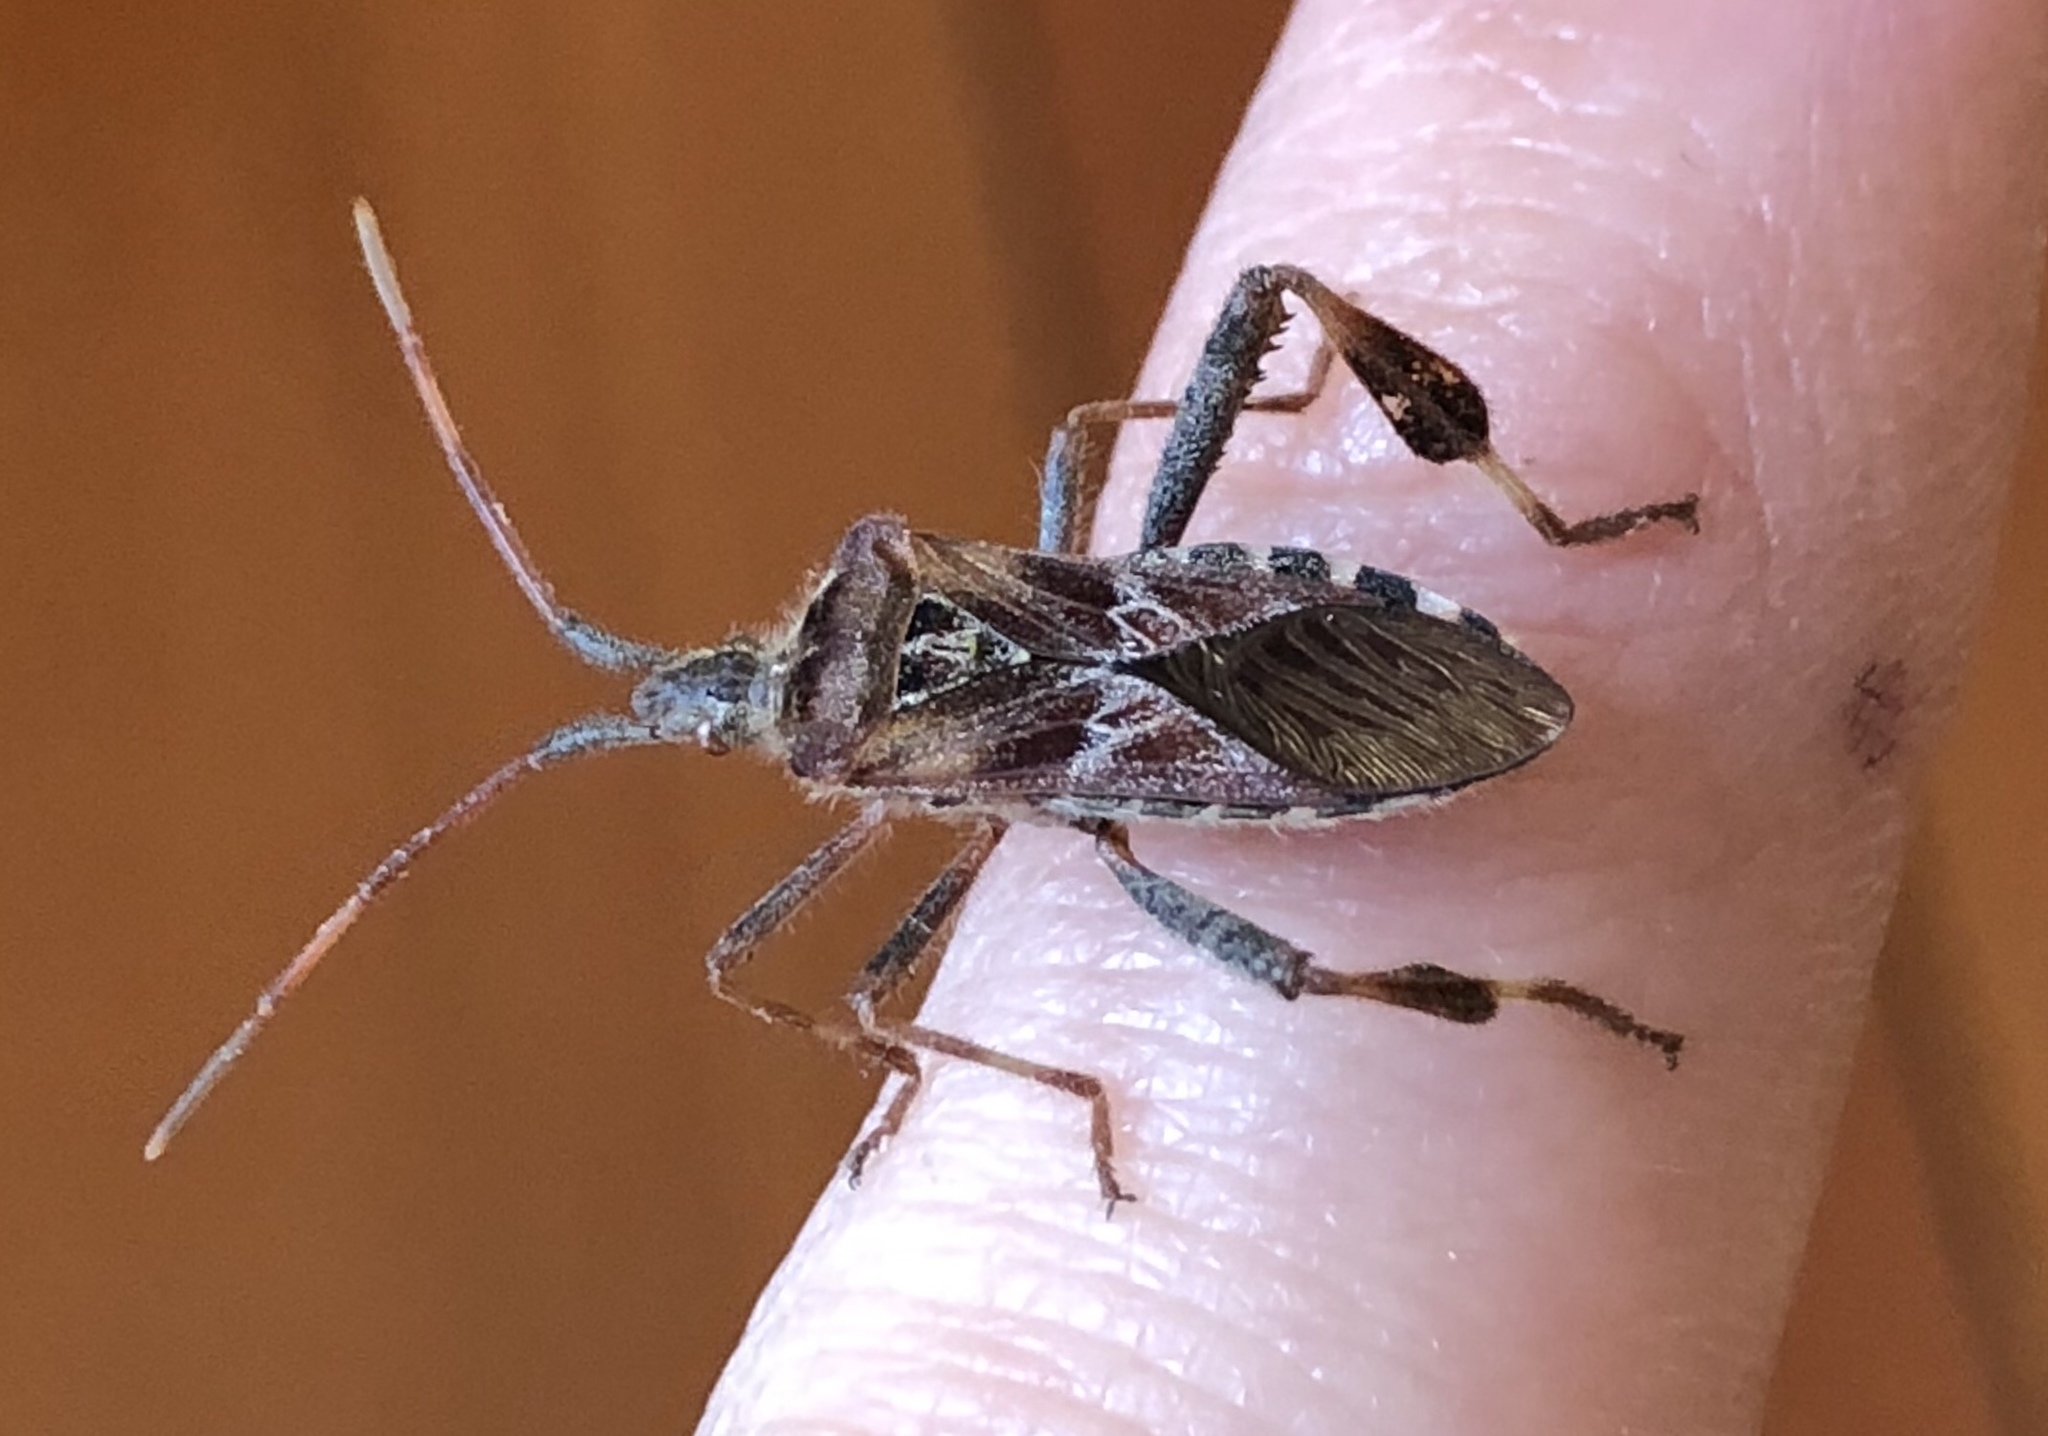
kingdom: Animalia
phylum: Arthropoda
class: Insecta
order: Hemiptera
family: Coreidae
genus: Leptoglossus
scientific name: Leptoglossus occidentalis
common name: Western conifer-seed bug
